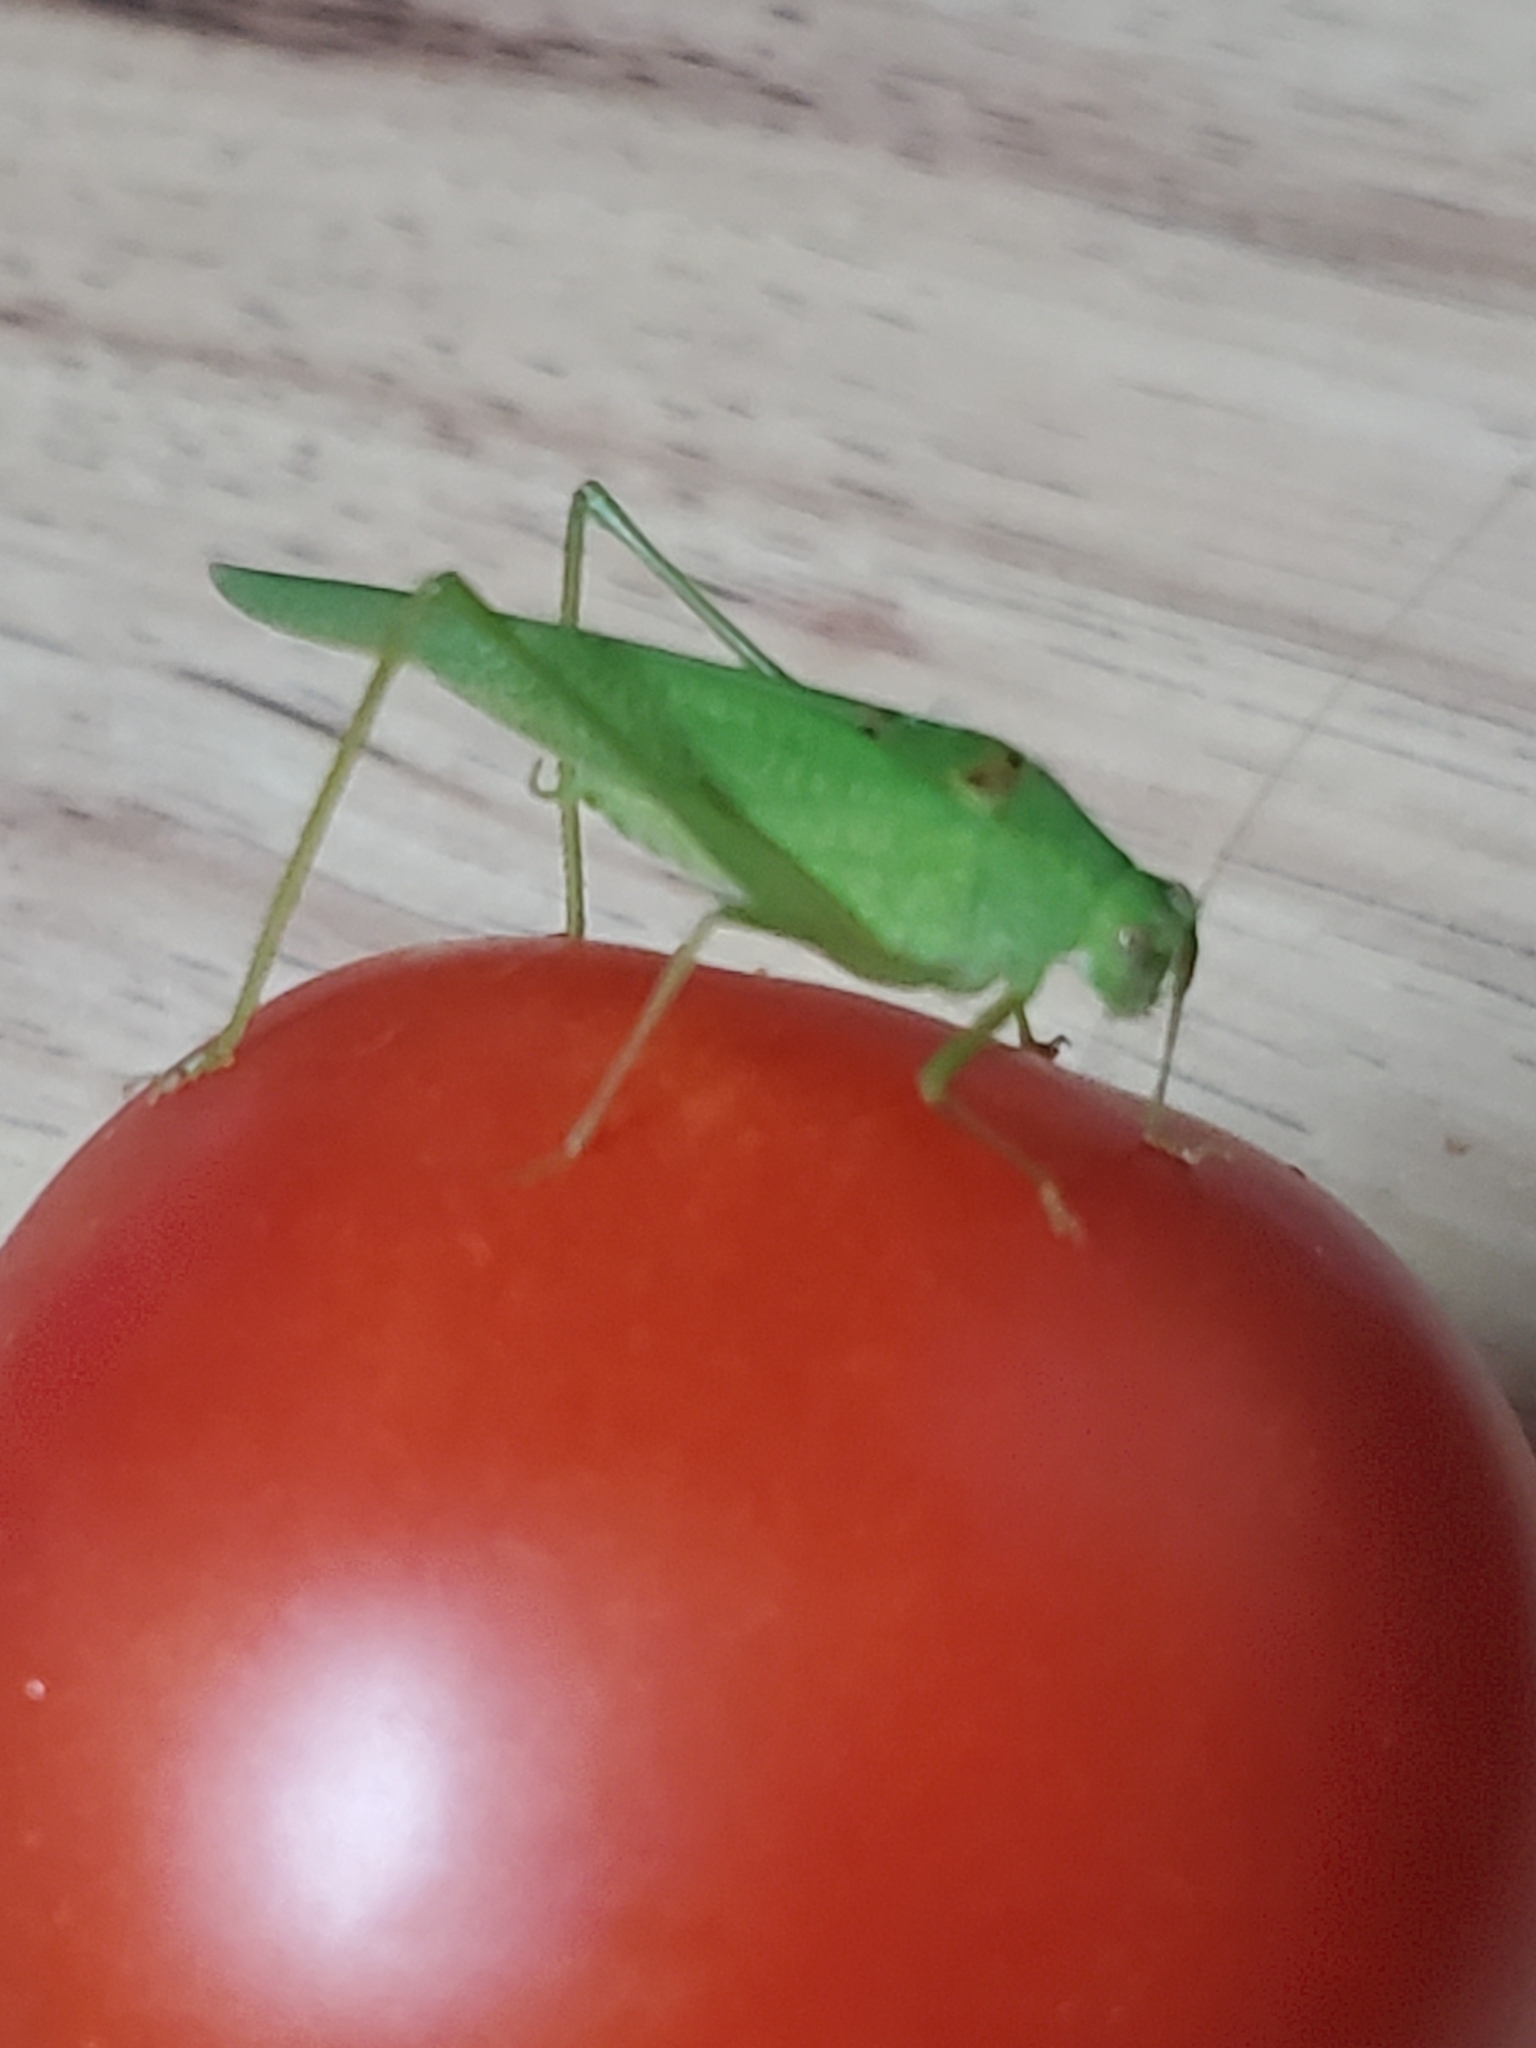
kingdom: Animalia
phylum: Arthropoda
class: Insecta
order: Orthoptera
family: Tettigoniidae
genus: Phaneroptera
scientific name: Phaneroptera nana
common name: Southern sickle bush-cricket
